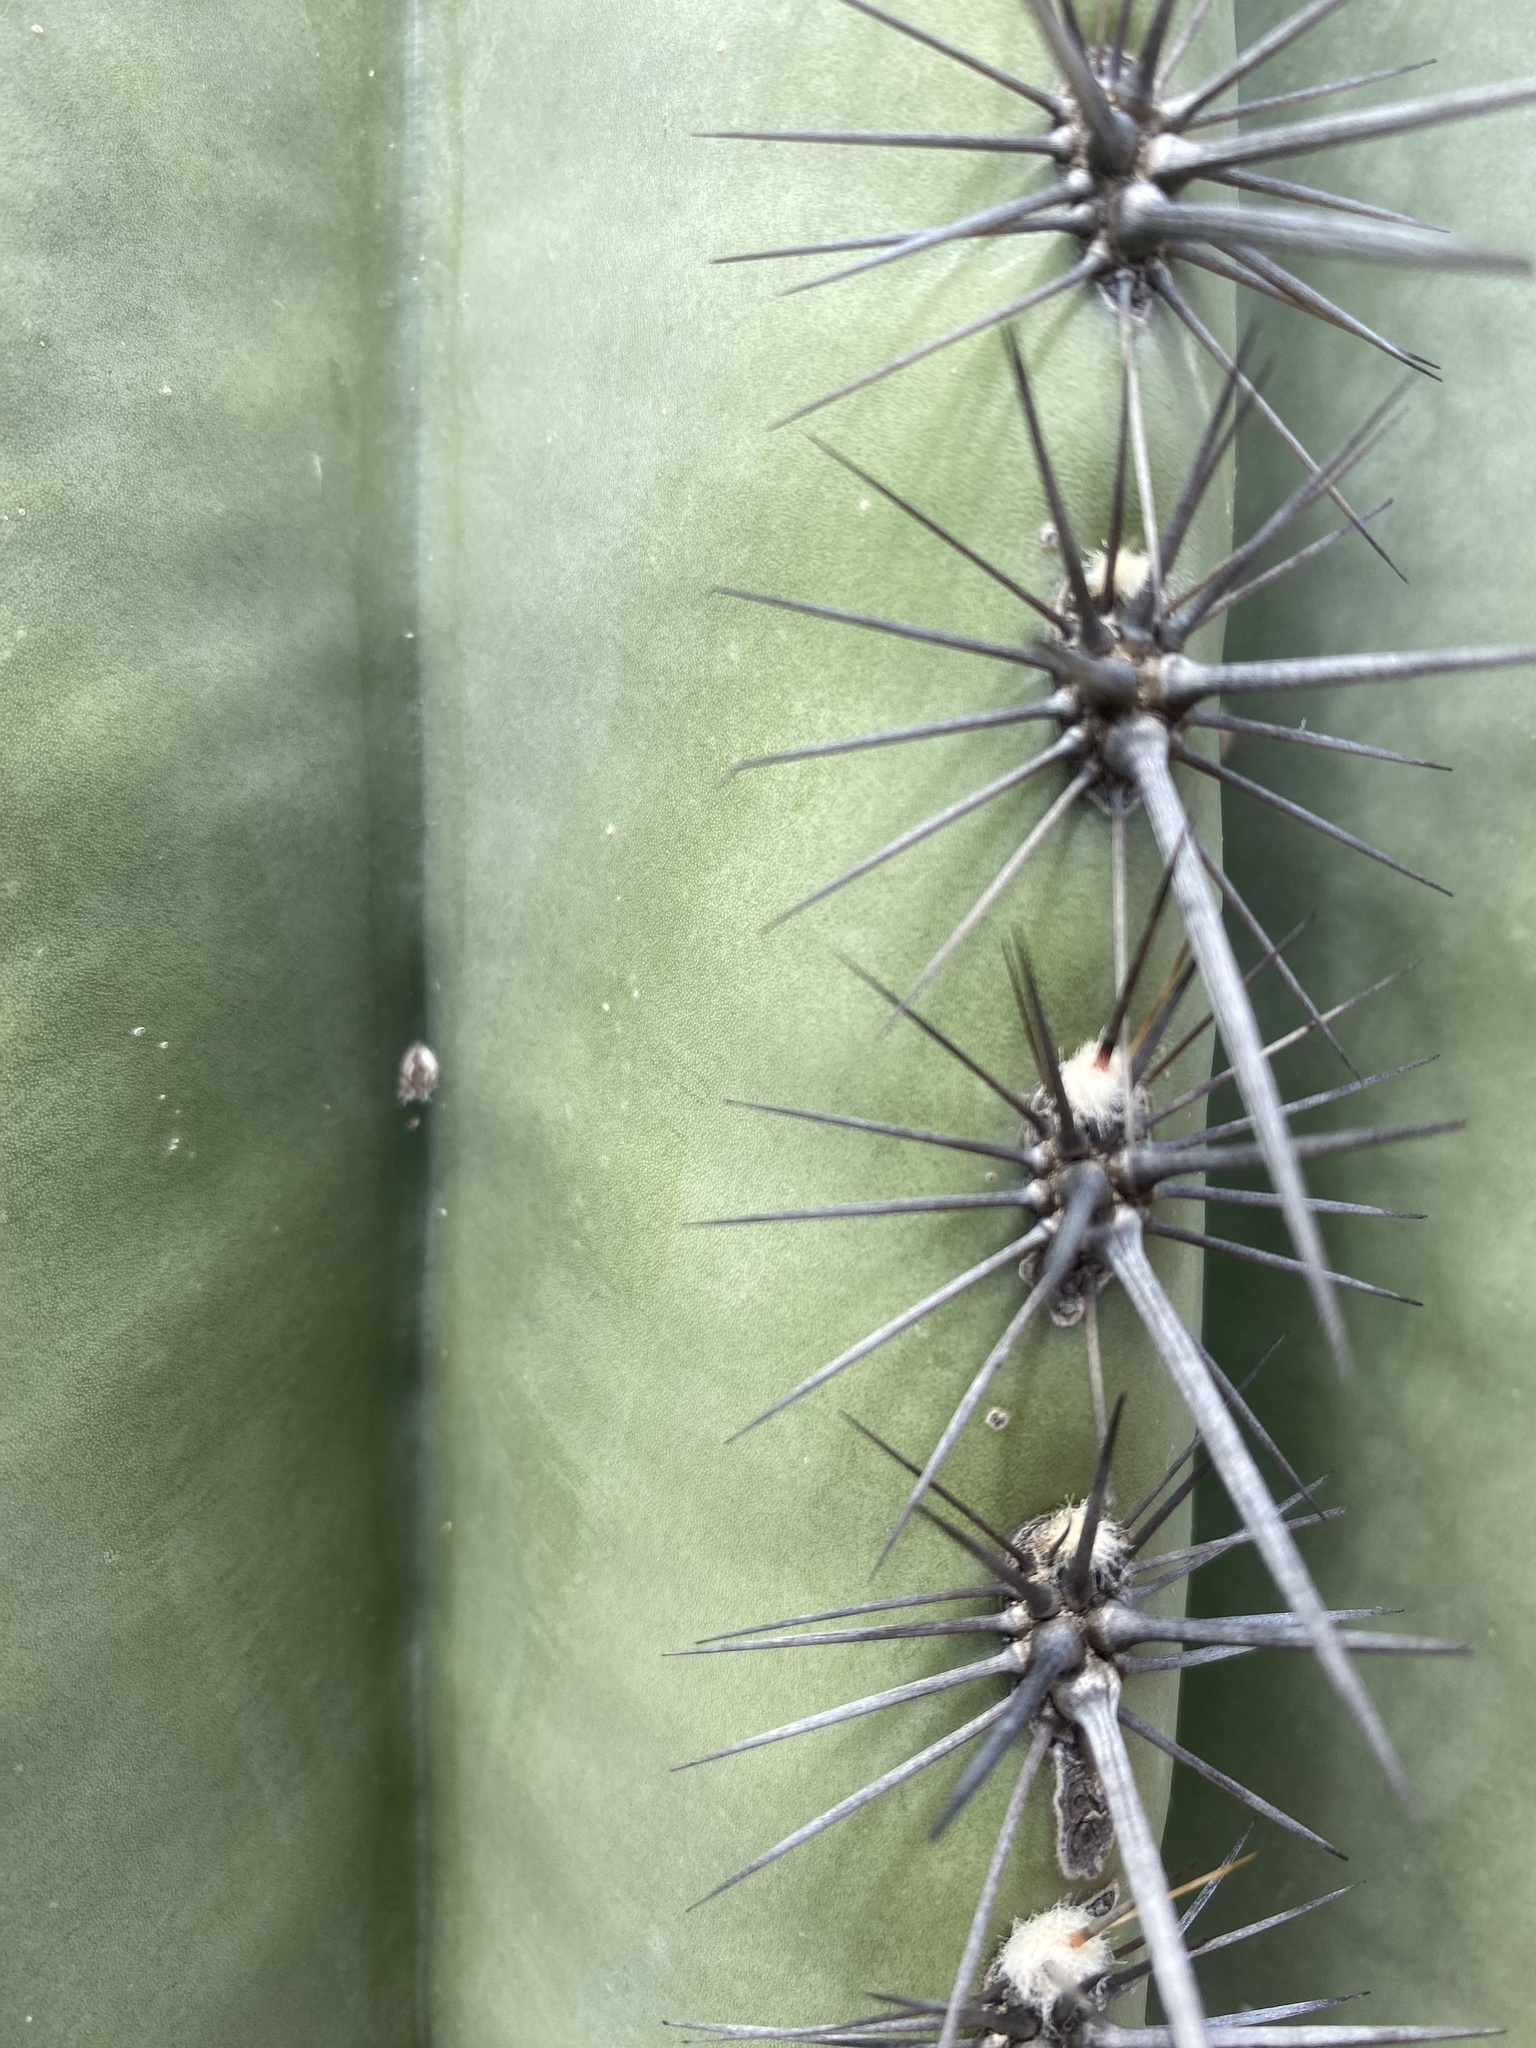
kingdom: Plantae
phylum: Tracheophyta
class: Magnoliopsida
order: Caryophyllales
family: Cactaceae
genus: Carnegiea
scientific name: Carnegiea gigantea
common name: Saguaro
